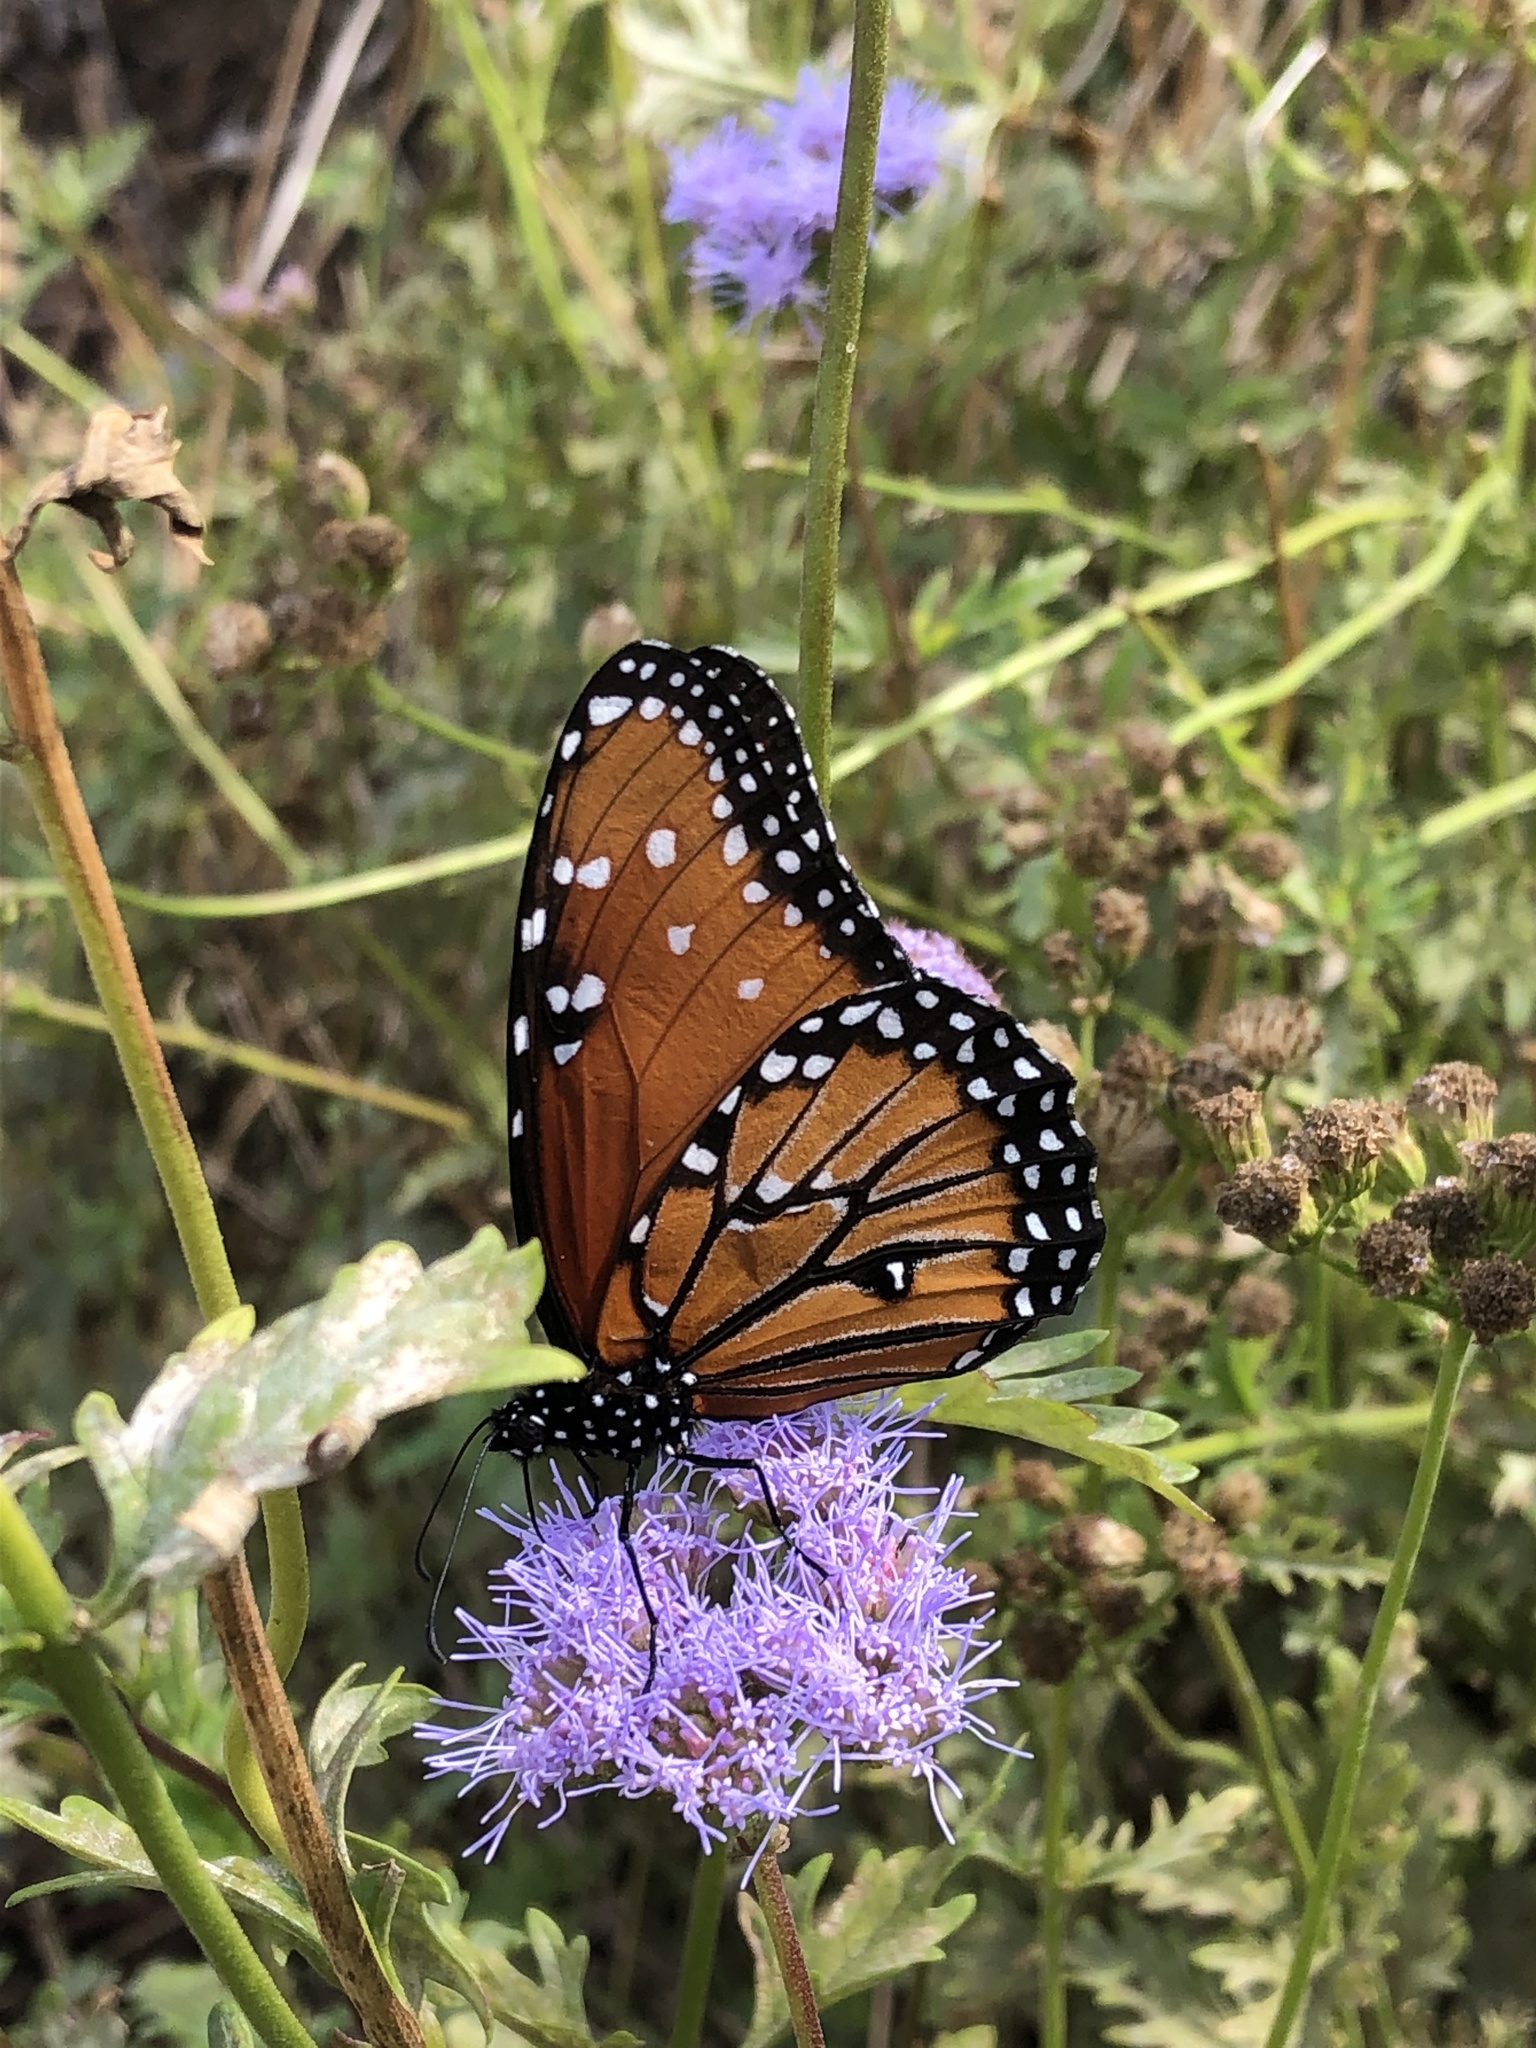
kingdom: Animalia
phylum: Arthropoda
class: Insecta
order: Lepidoptera
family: Nymphalidae
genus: Danaus
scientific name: Danaus gilippus
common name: Queen
